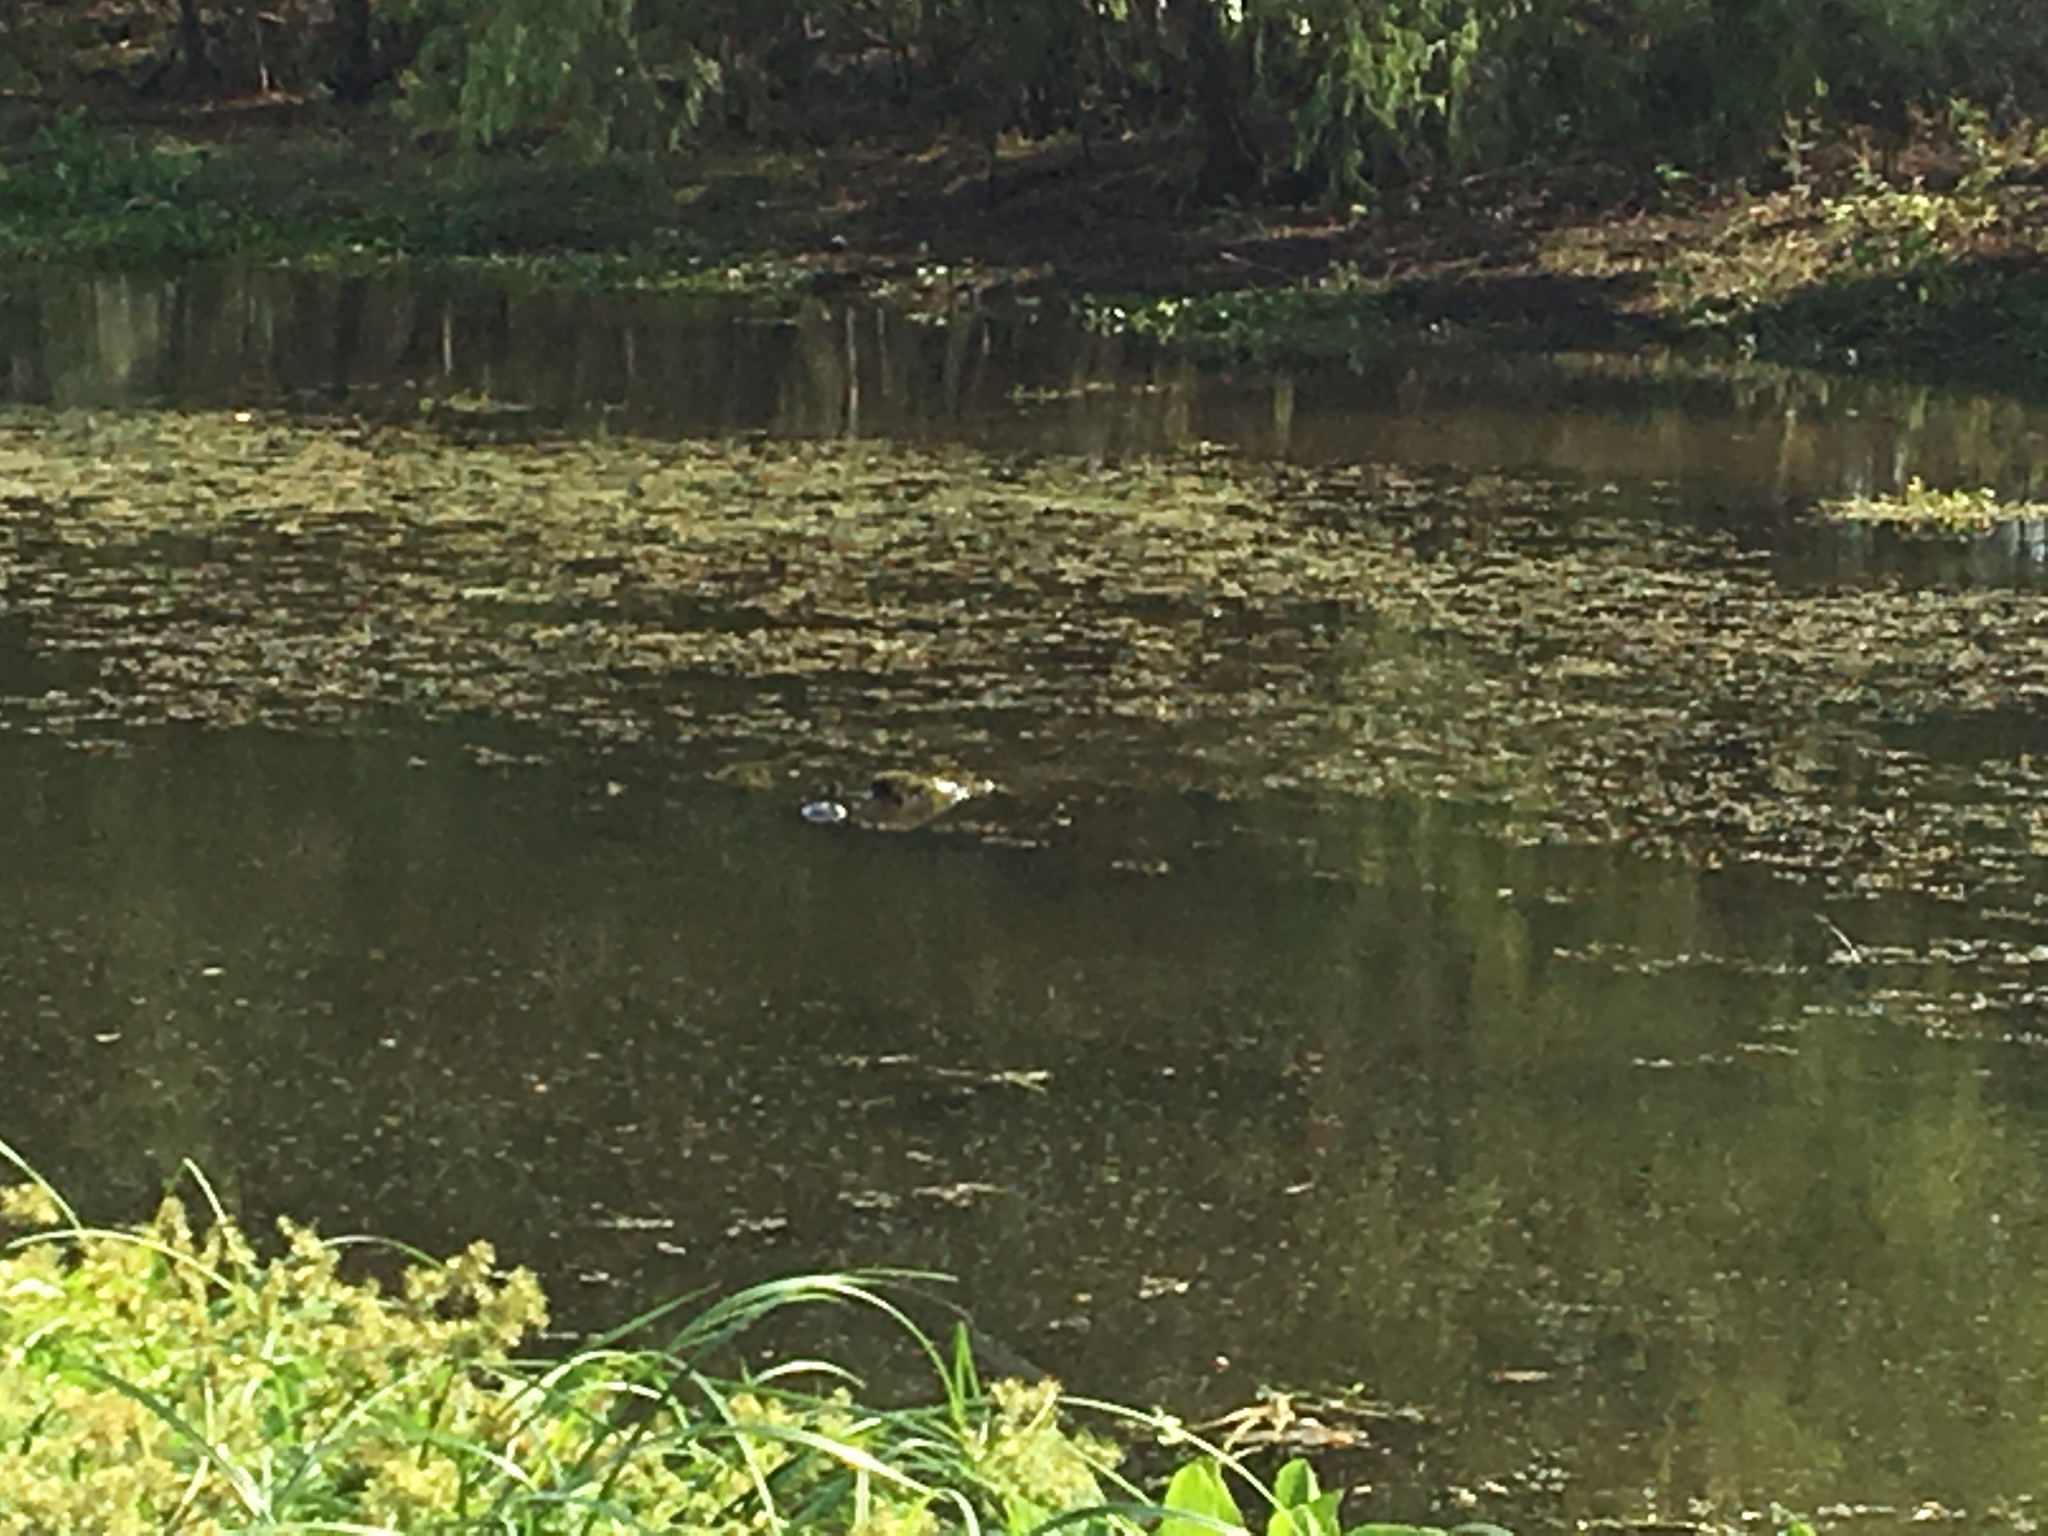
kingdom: Animalia
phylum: Chordata
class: Crocodylia
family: Alligatoridae
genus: Alligator
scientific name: Alligator mississippiensis
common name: American alligator
